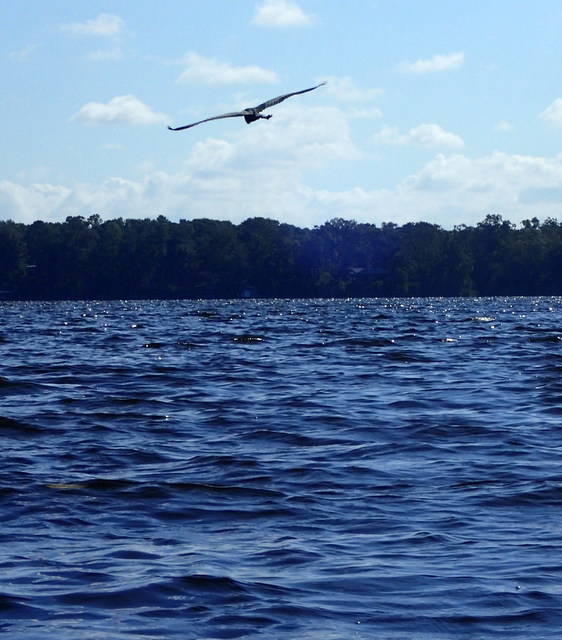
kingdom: Animalia
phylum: Chordata
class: Aves
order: Pelecaniformes
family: Ardeidae
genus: Ardea
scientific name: Ardea herodias
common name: Great blue heron
